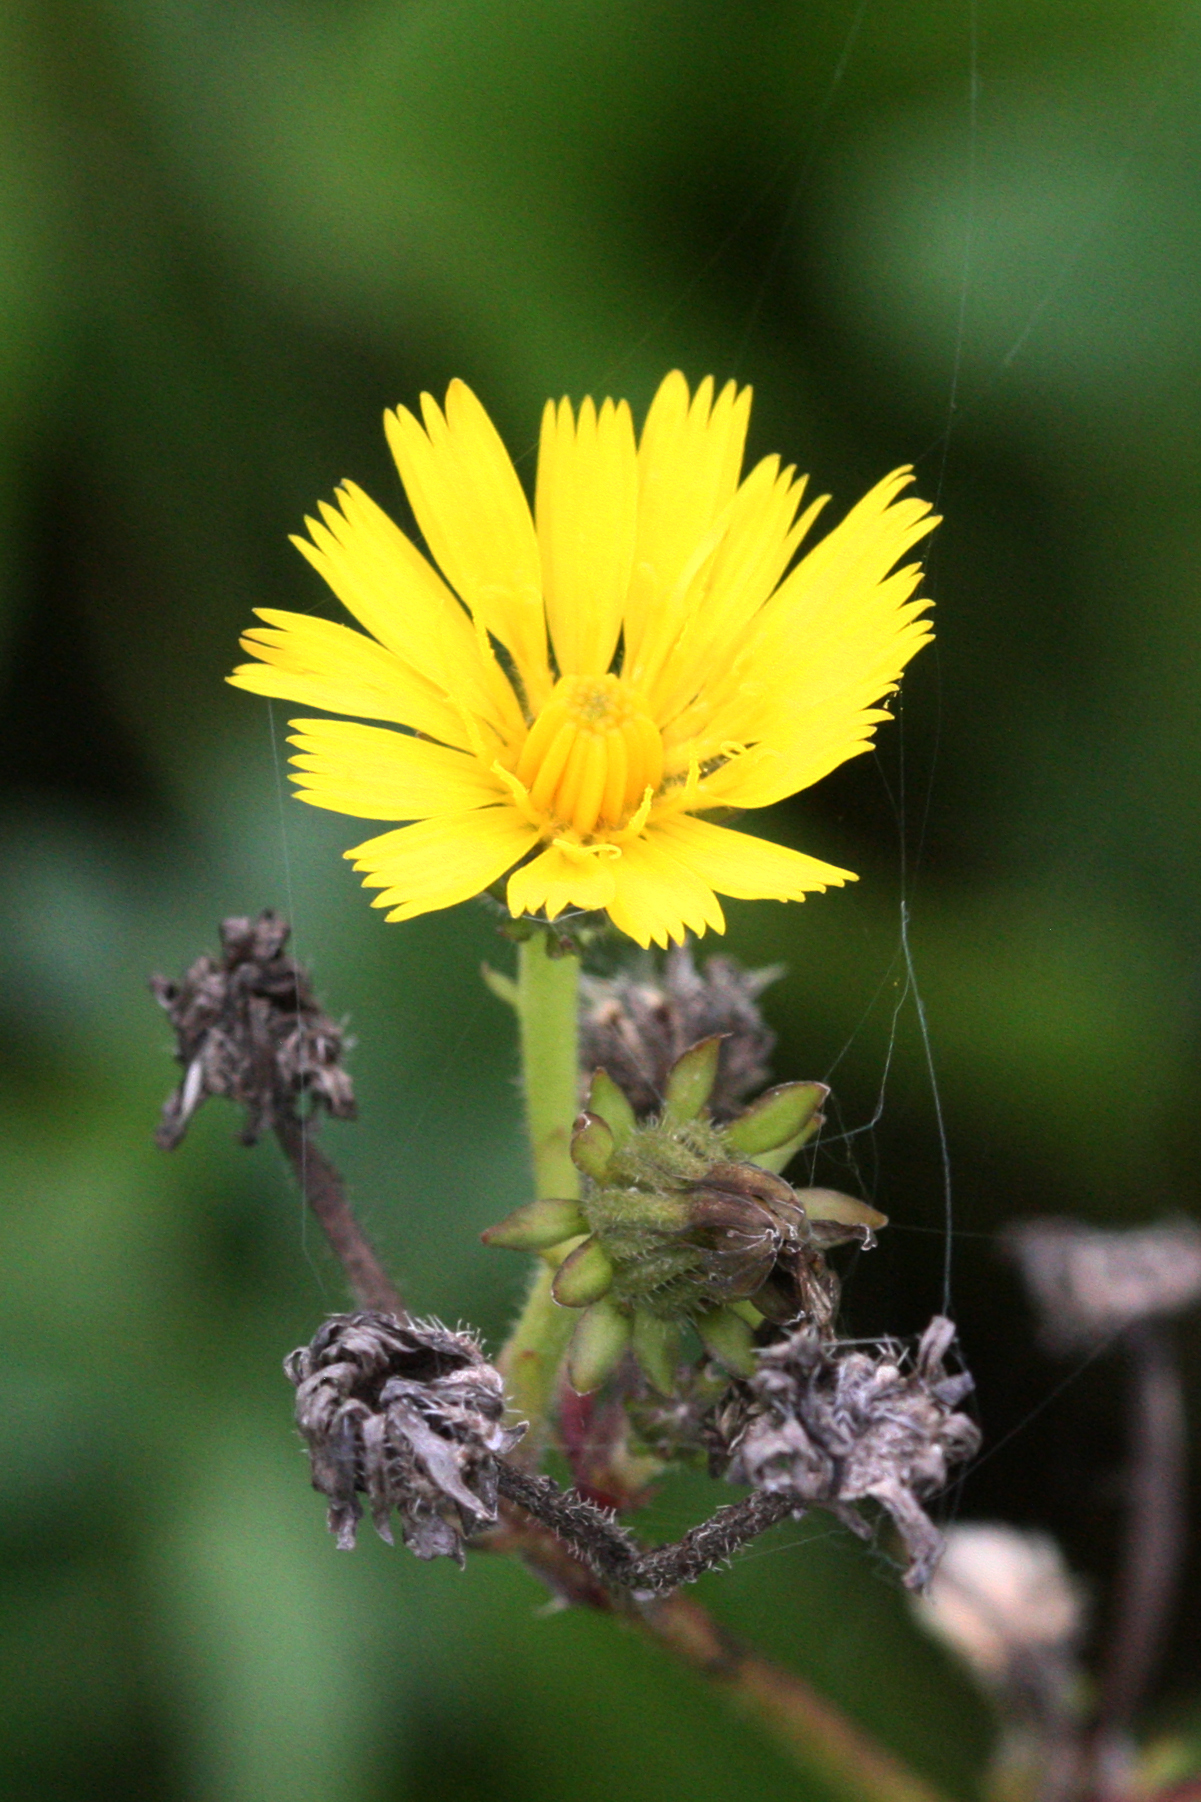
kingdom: Plantae
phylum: Tracheophyta
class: Magnoliopsida
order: Asterales
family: Asteraceae
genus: Picris
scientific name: Picris hieracioides
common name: Hawkweed oxtongue
